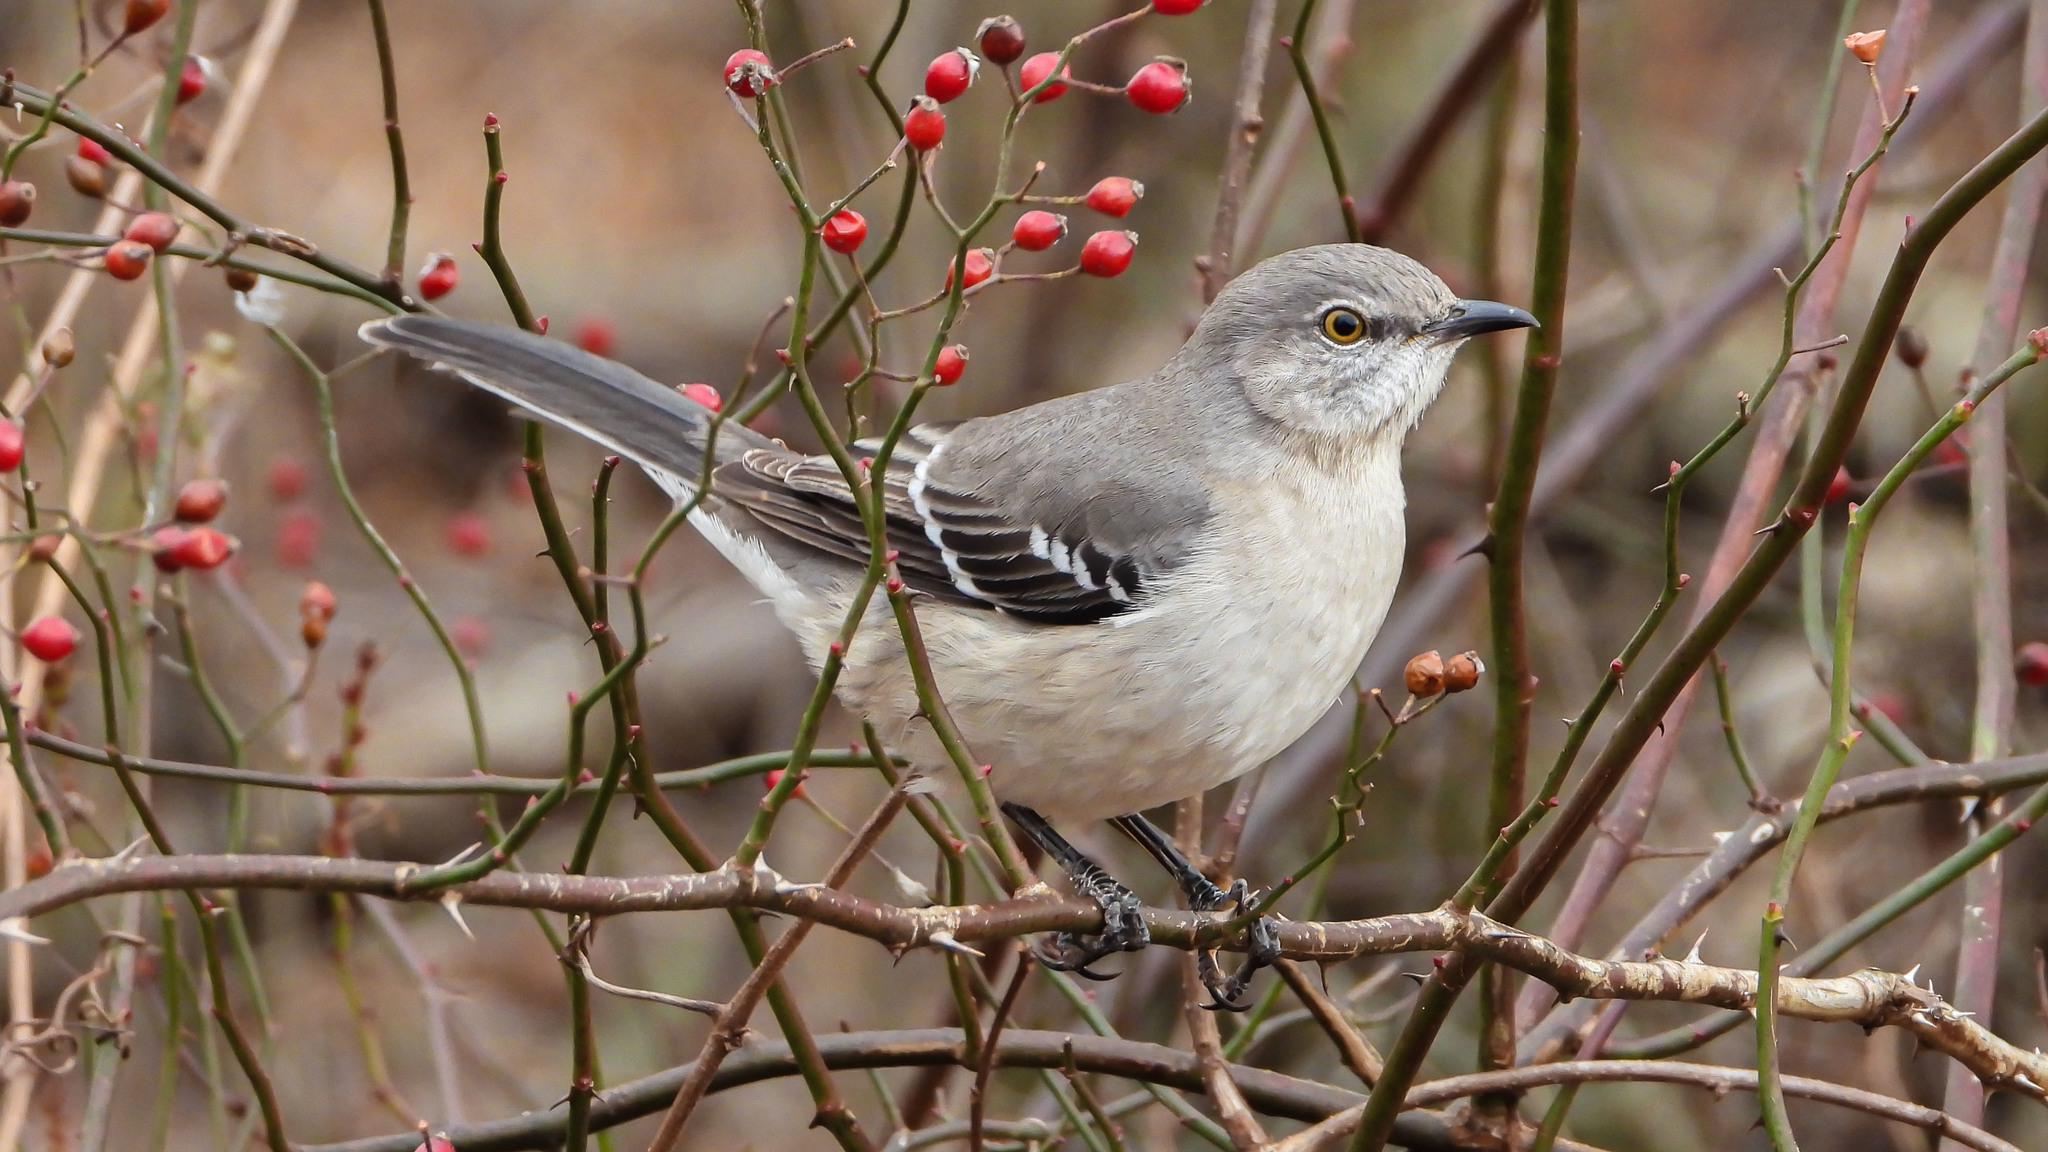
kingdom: Animalia
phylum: Chordata
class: Aves
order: Passeriformes
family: Mimidae
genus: Mimus
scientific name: Mimus polyglottos
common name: Northern mockingbird
